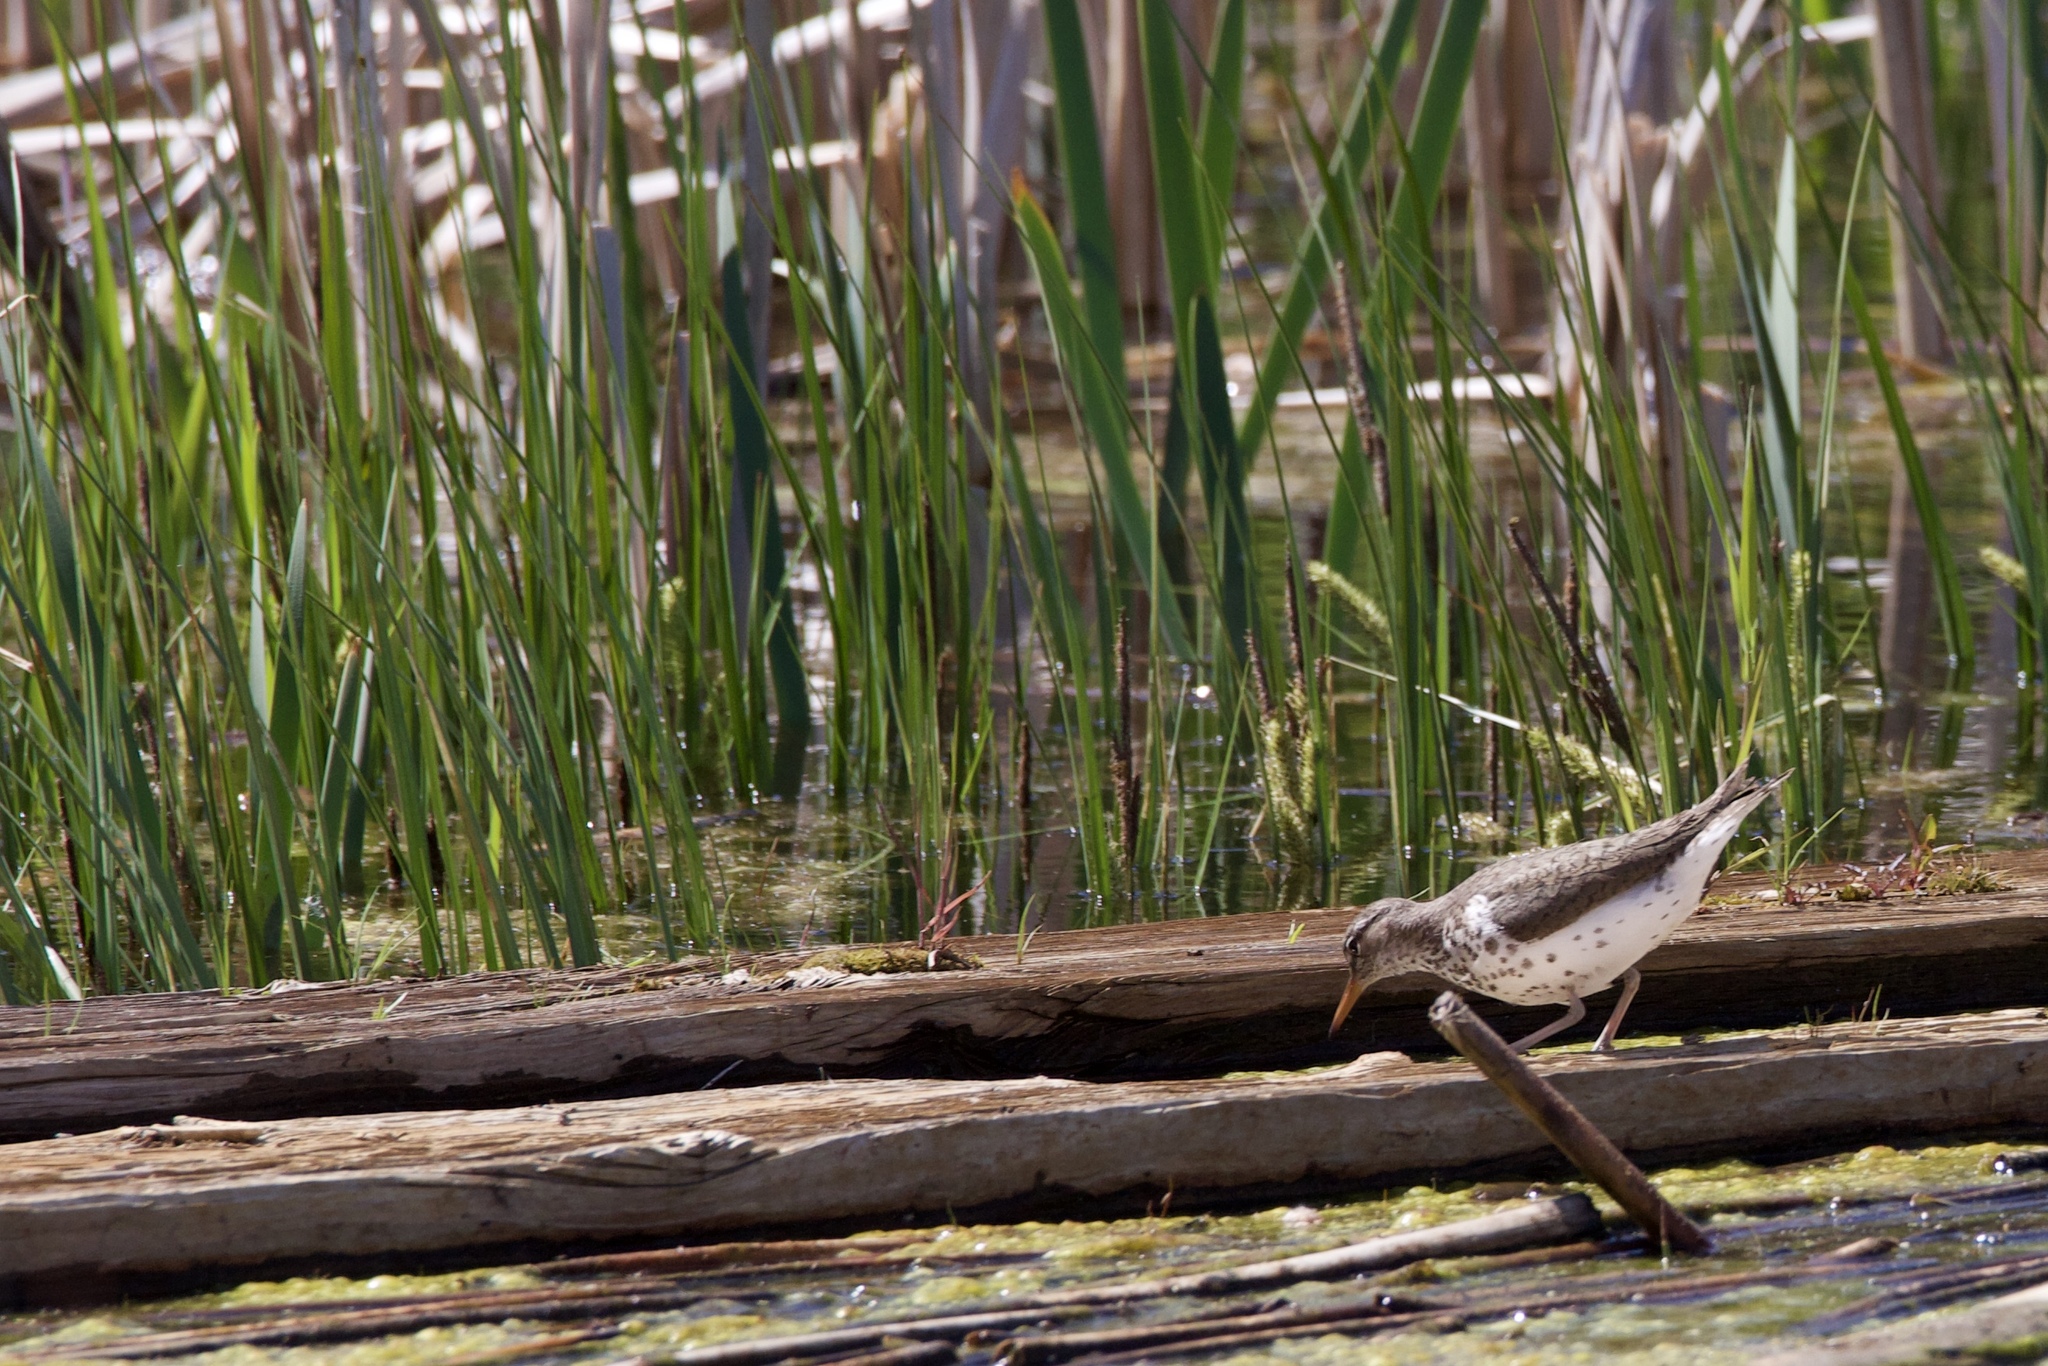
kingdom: Animalia
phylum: Chordata
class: Aves
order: Charadriiformes
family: Scolopacidae
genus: Actitis
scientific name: Actitis macularius
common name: Spotted sandpiper
